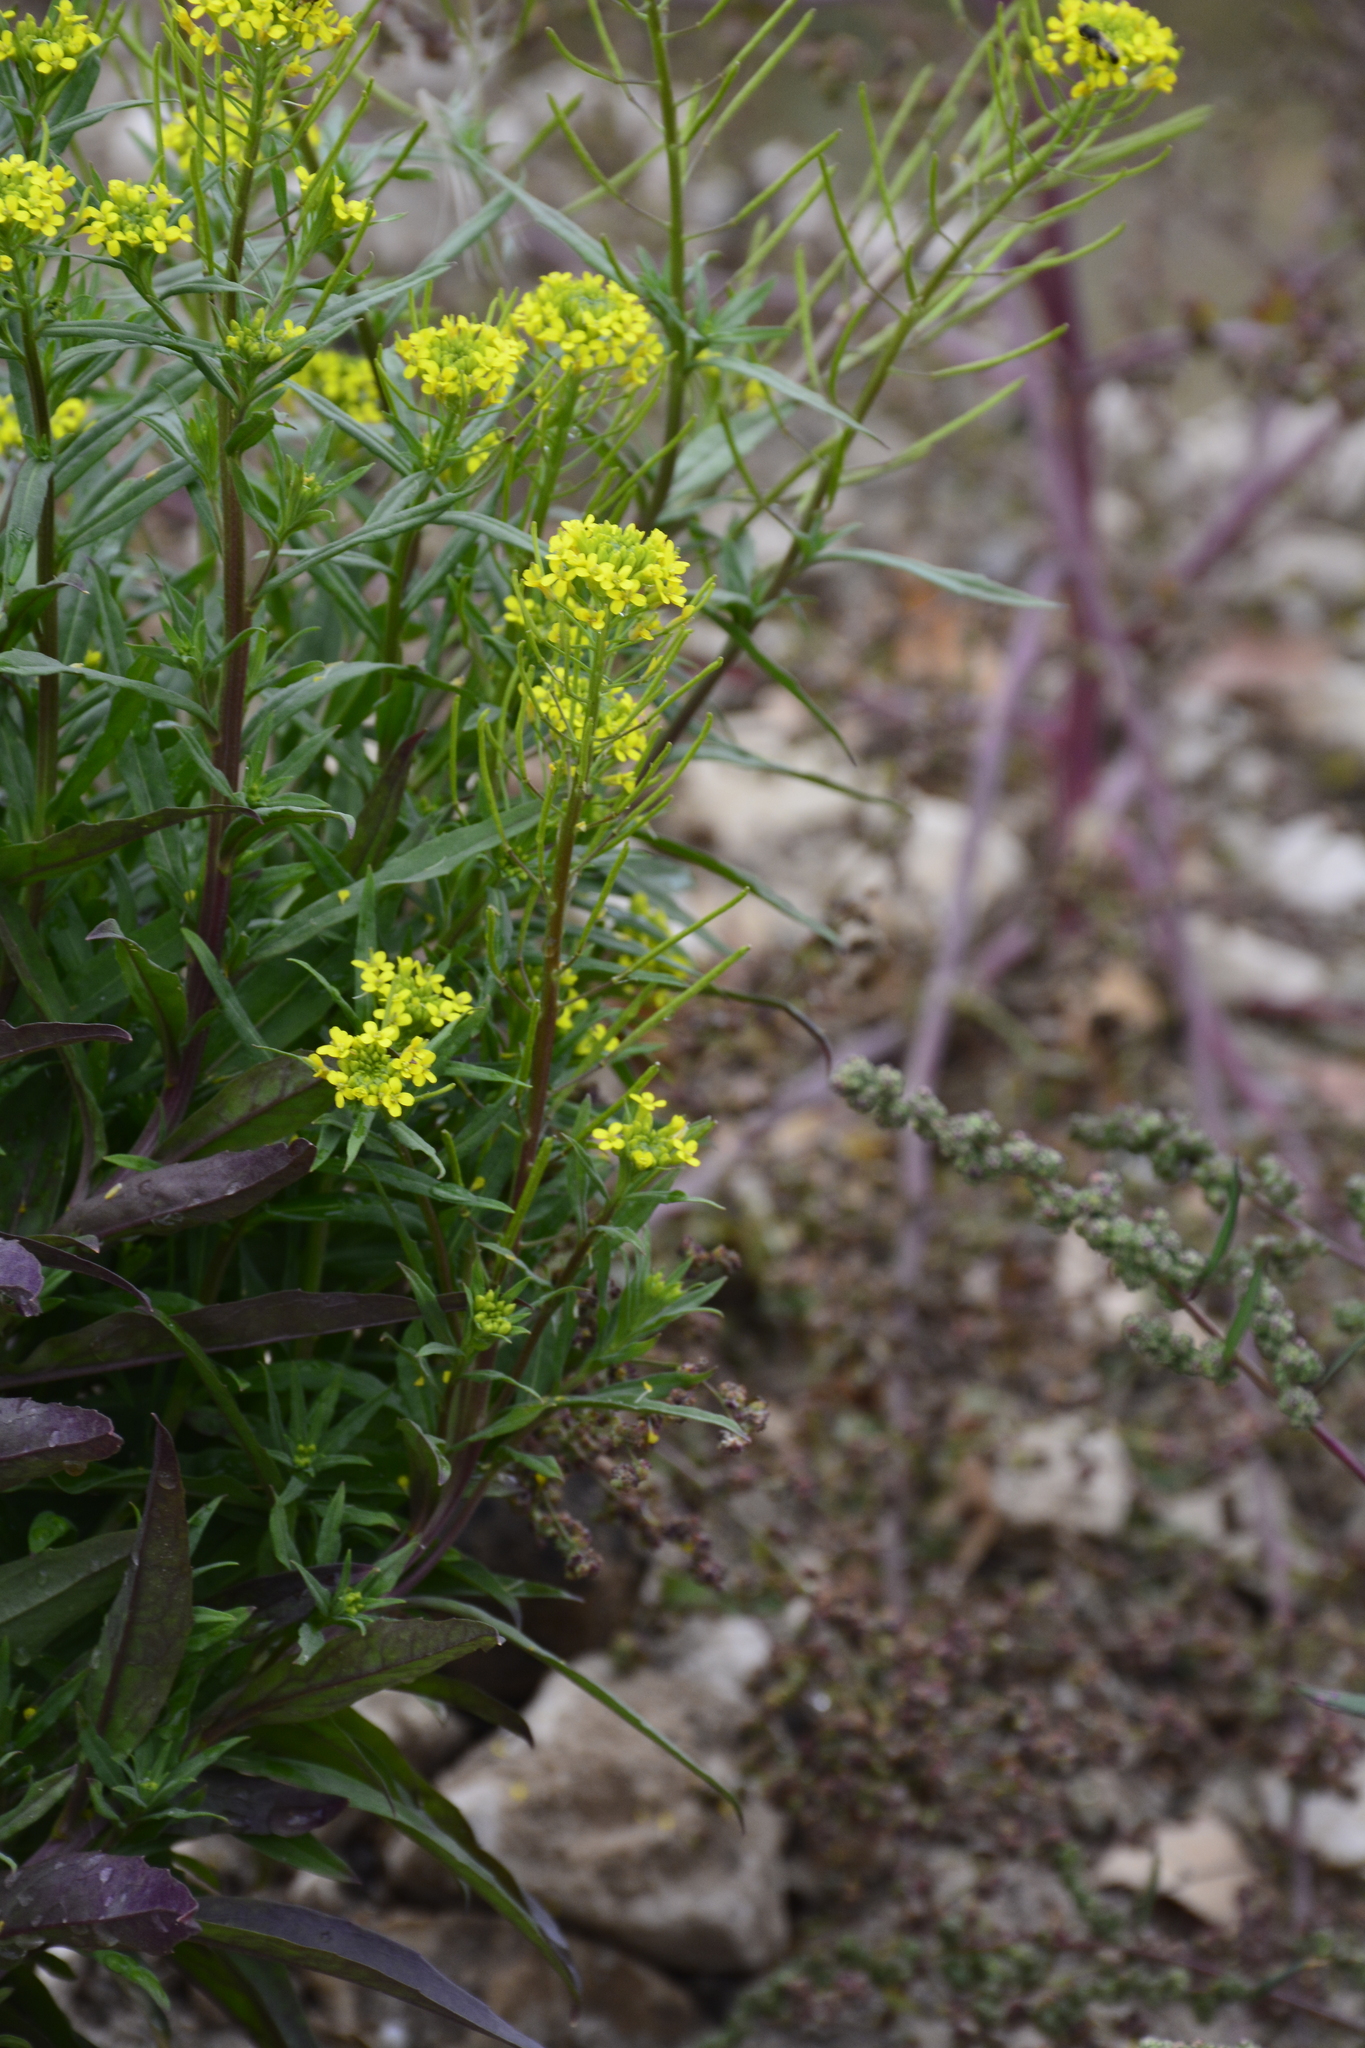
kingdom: Plantae
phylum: Tracheophyta
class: Magnoliopsida
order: Brassicales
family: Brassicaceae
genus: Erysimum
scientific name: Erysimum cheiranthoides
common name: Treacle mustard
